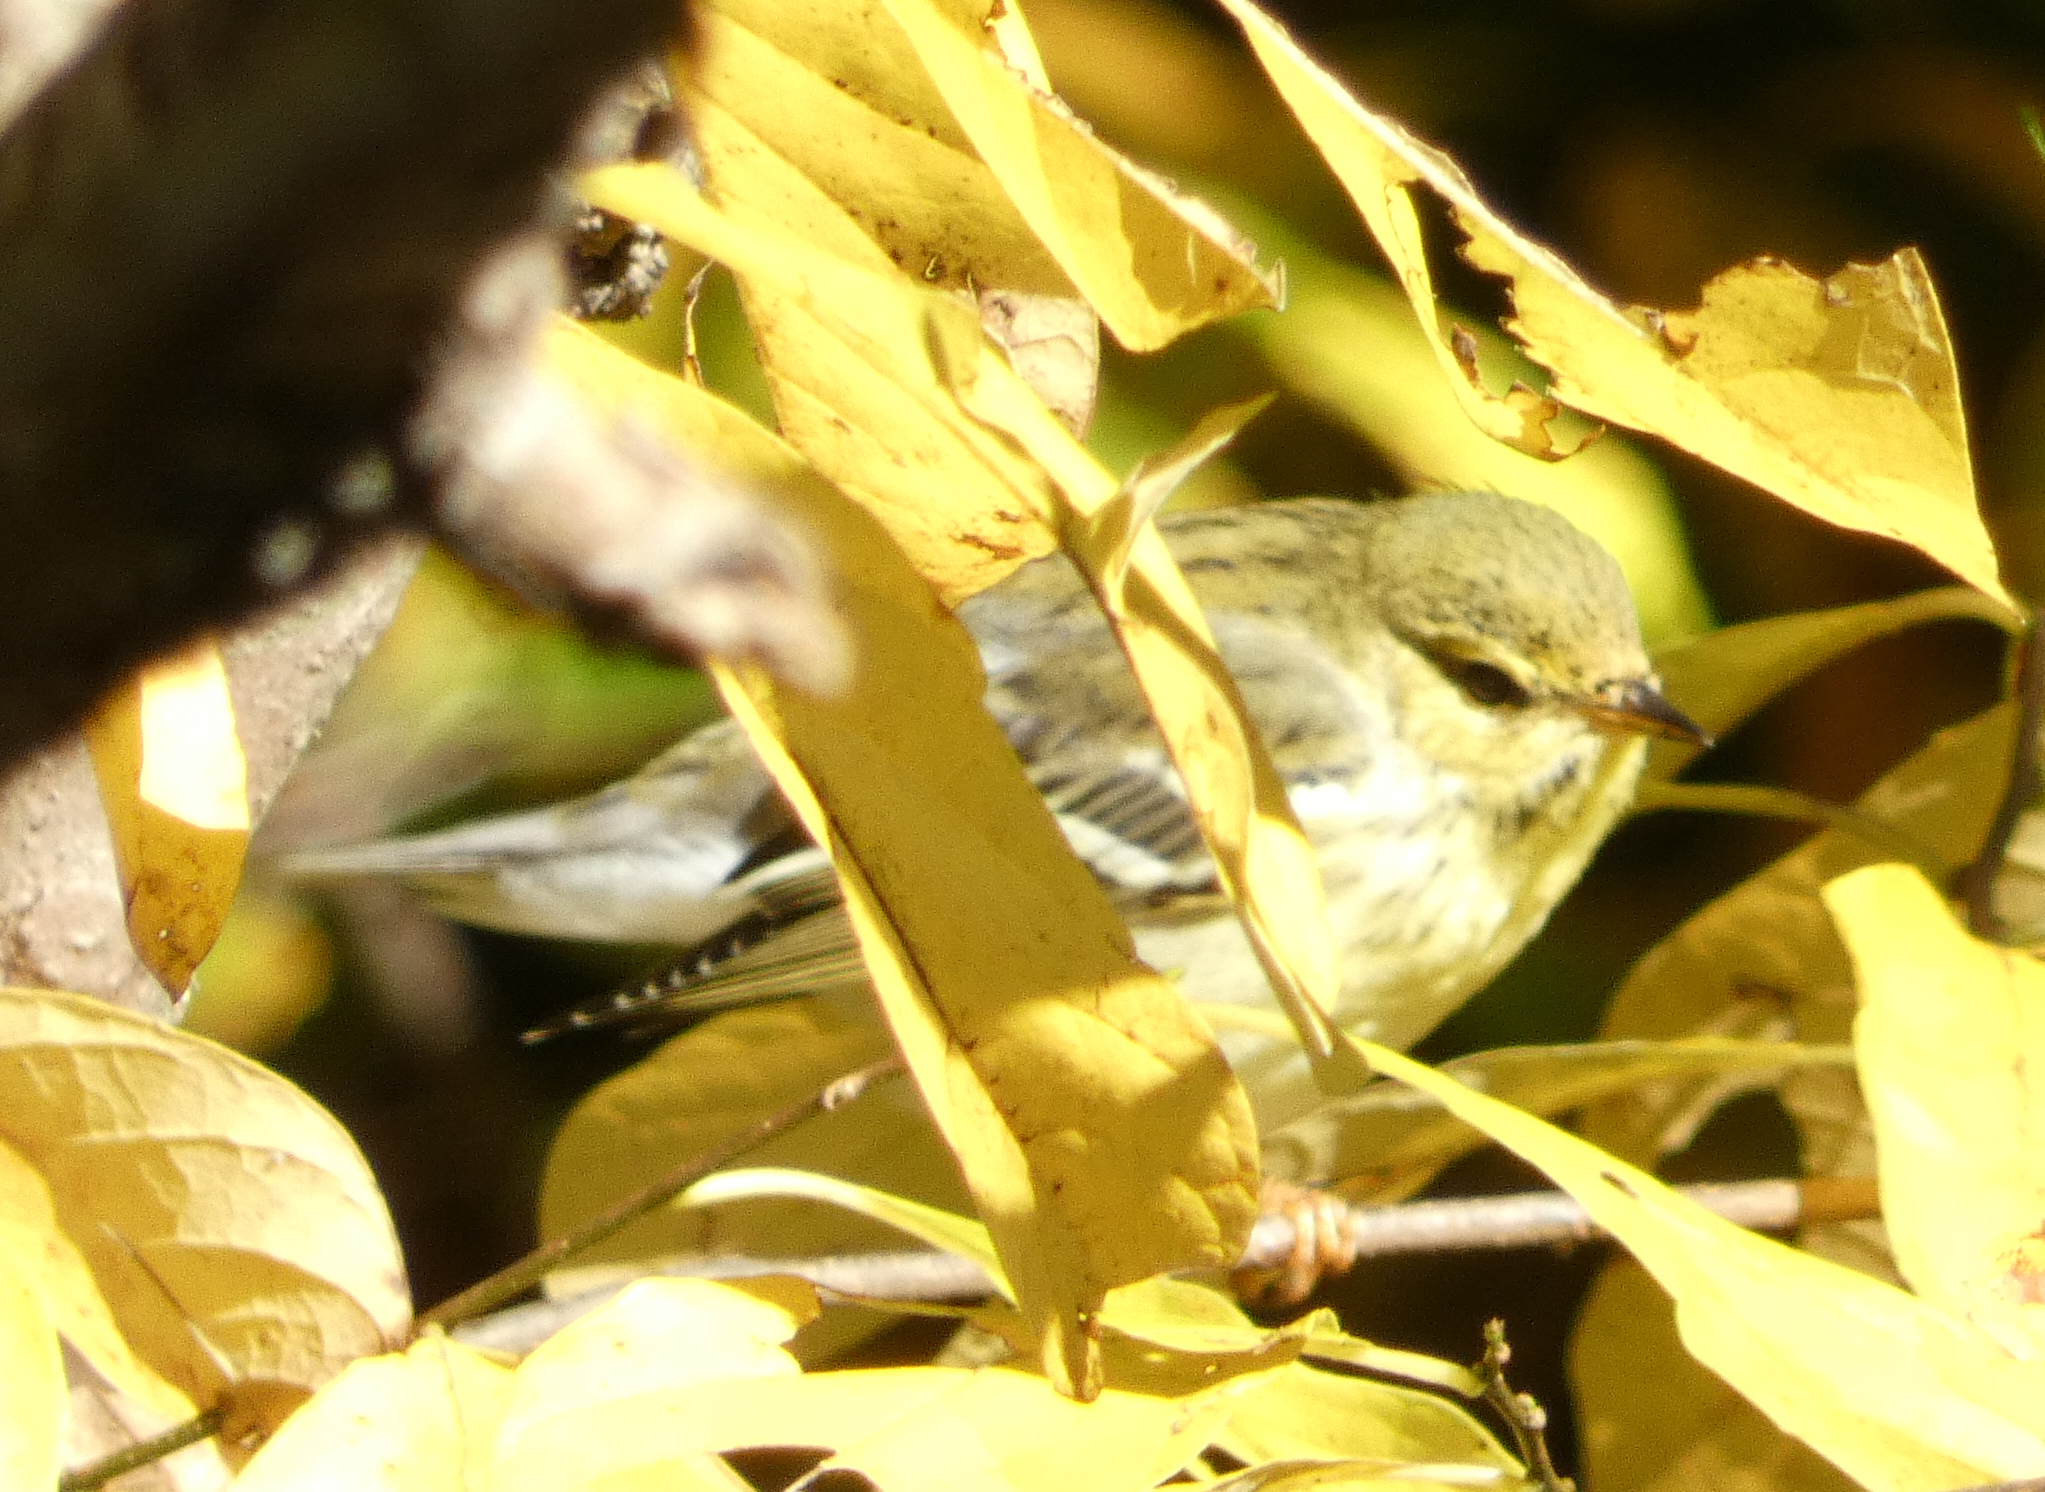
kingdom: Animalia
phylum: Chordata
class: Aves
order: Passeriformes
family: Parulidae
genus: Setophaga
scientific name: Setophaga striata
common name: Blackpoll warbler
